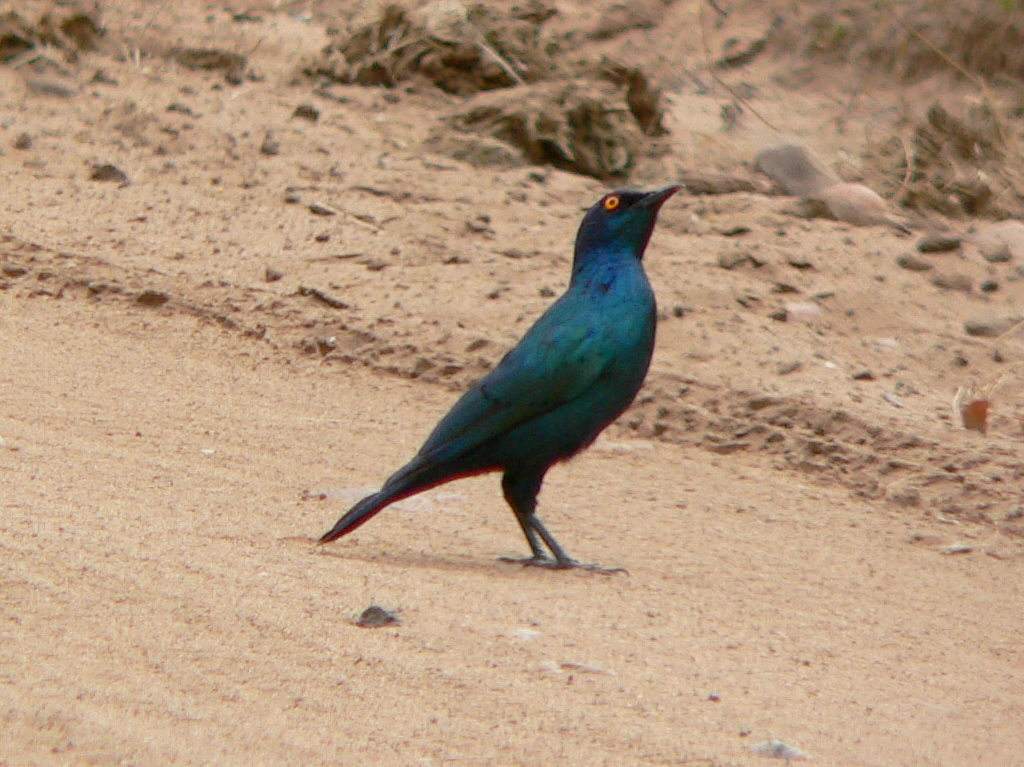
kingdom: Animalia
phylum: Chordata
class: Aves
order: Passeriformes
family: Sturnidae
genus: Lamprotornis
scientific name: Lamprotornis nitens
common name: Cape starling
